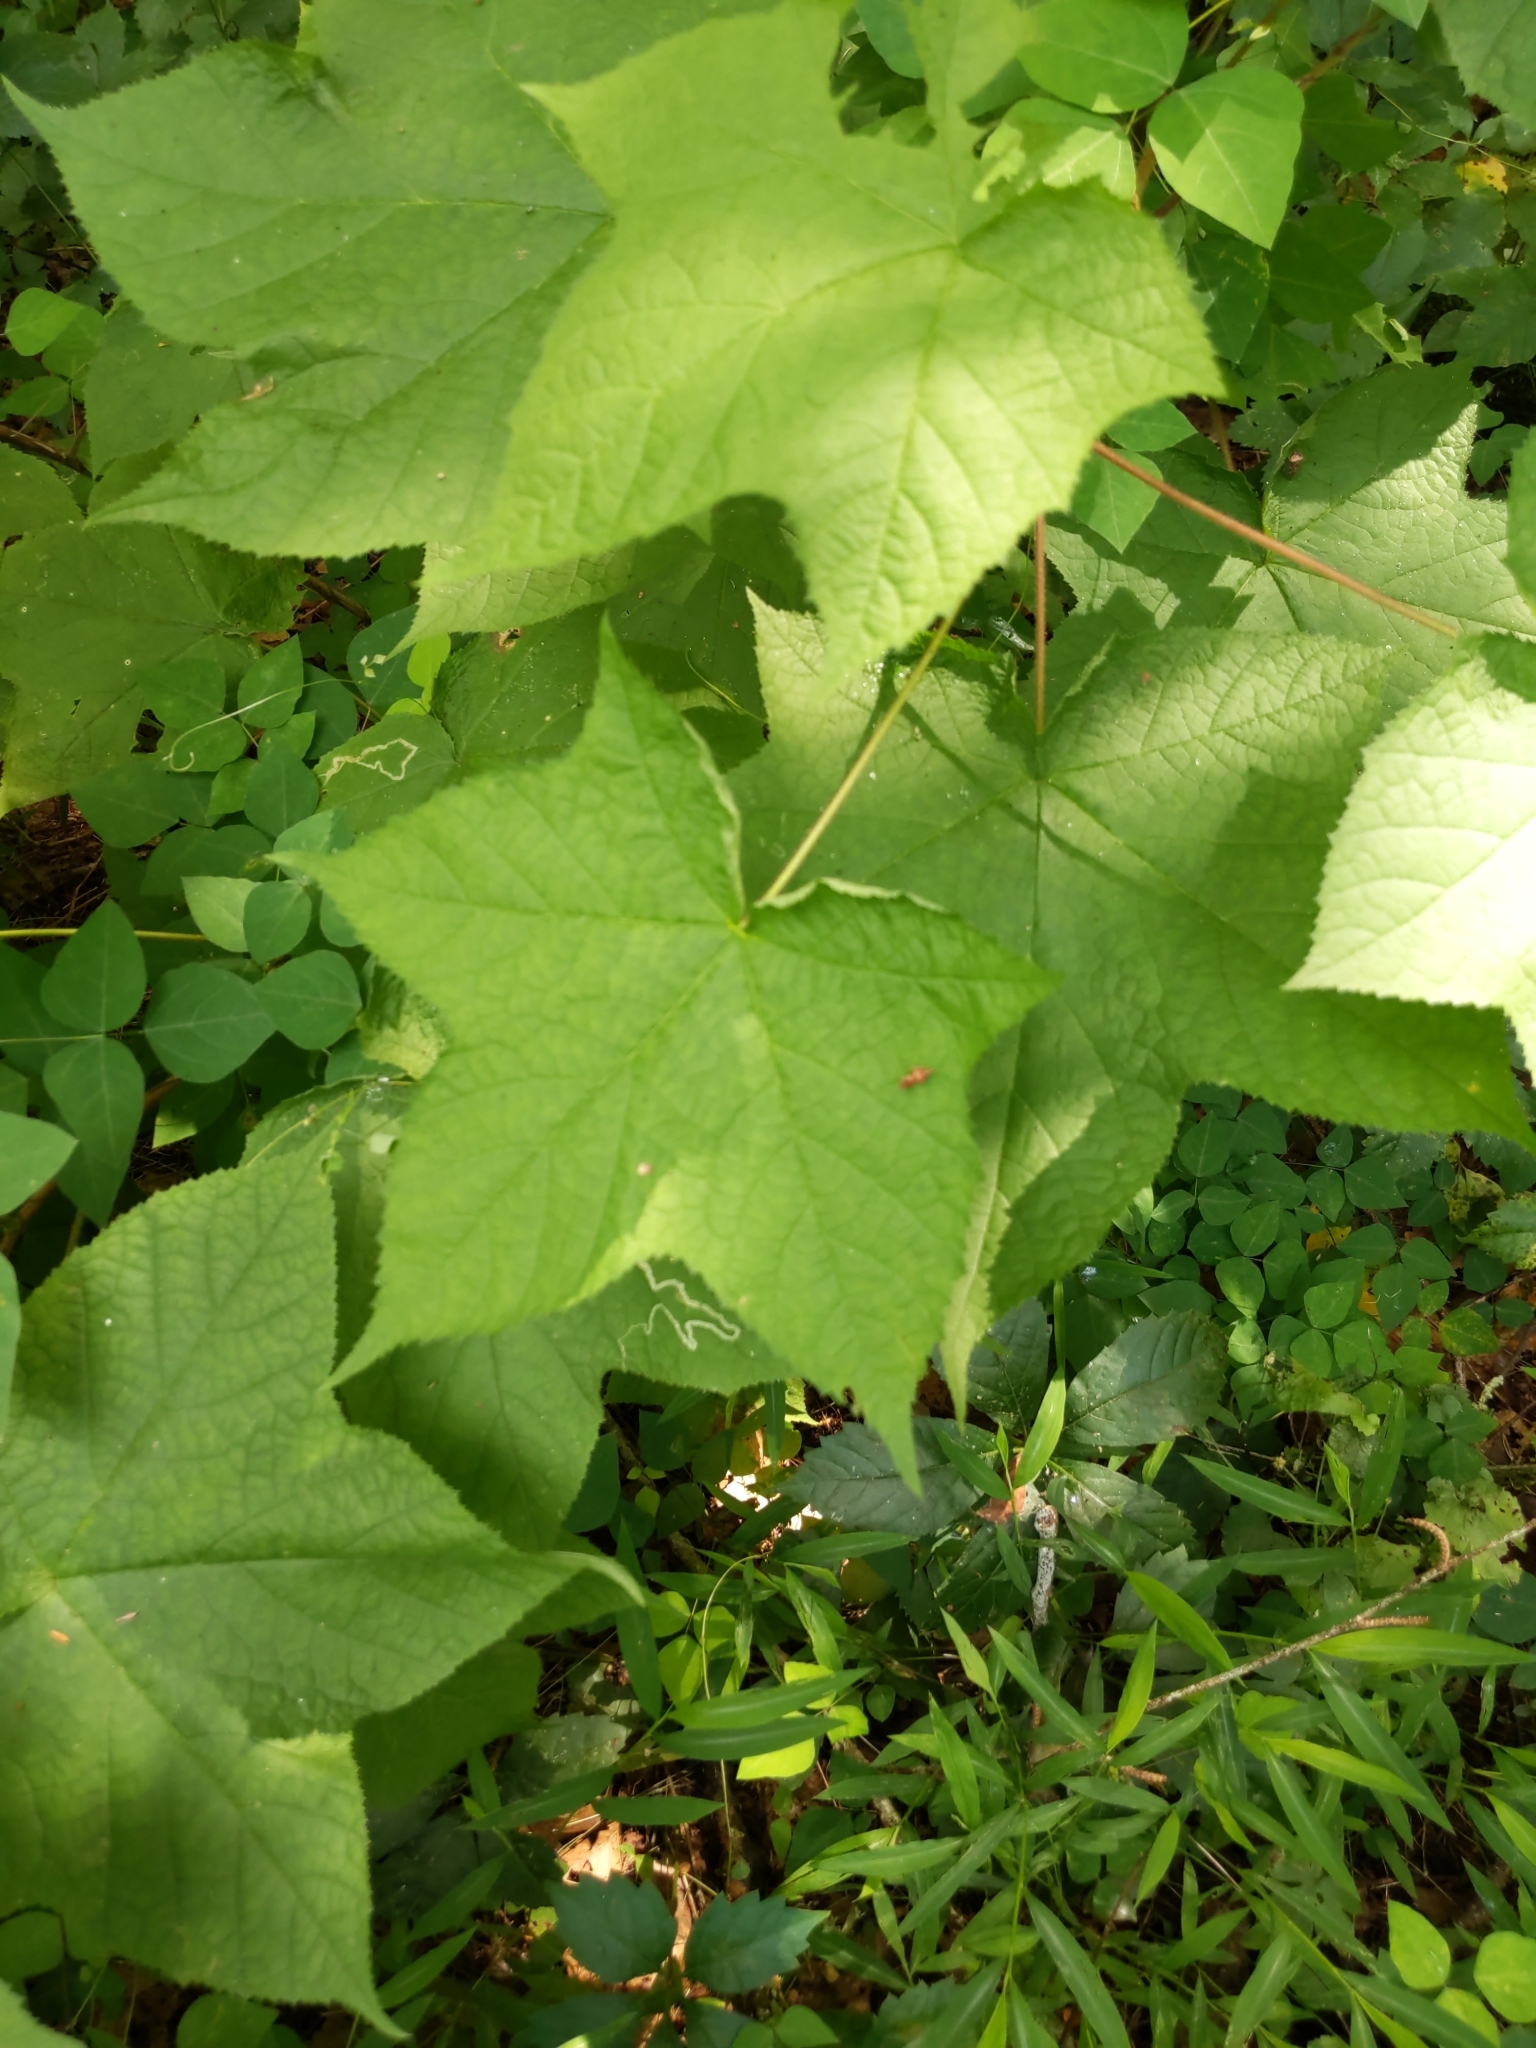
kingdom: Plantae
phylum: Tracheophyta
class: Magnoliopsida
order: Rosales
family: Rosaceae
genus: Rubus
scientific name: Rubus odoratus
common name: Purple-flowered raspberry
